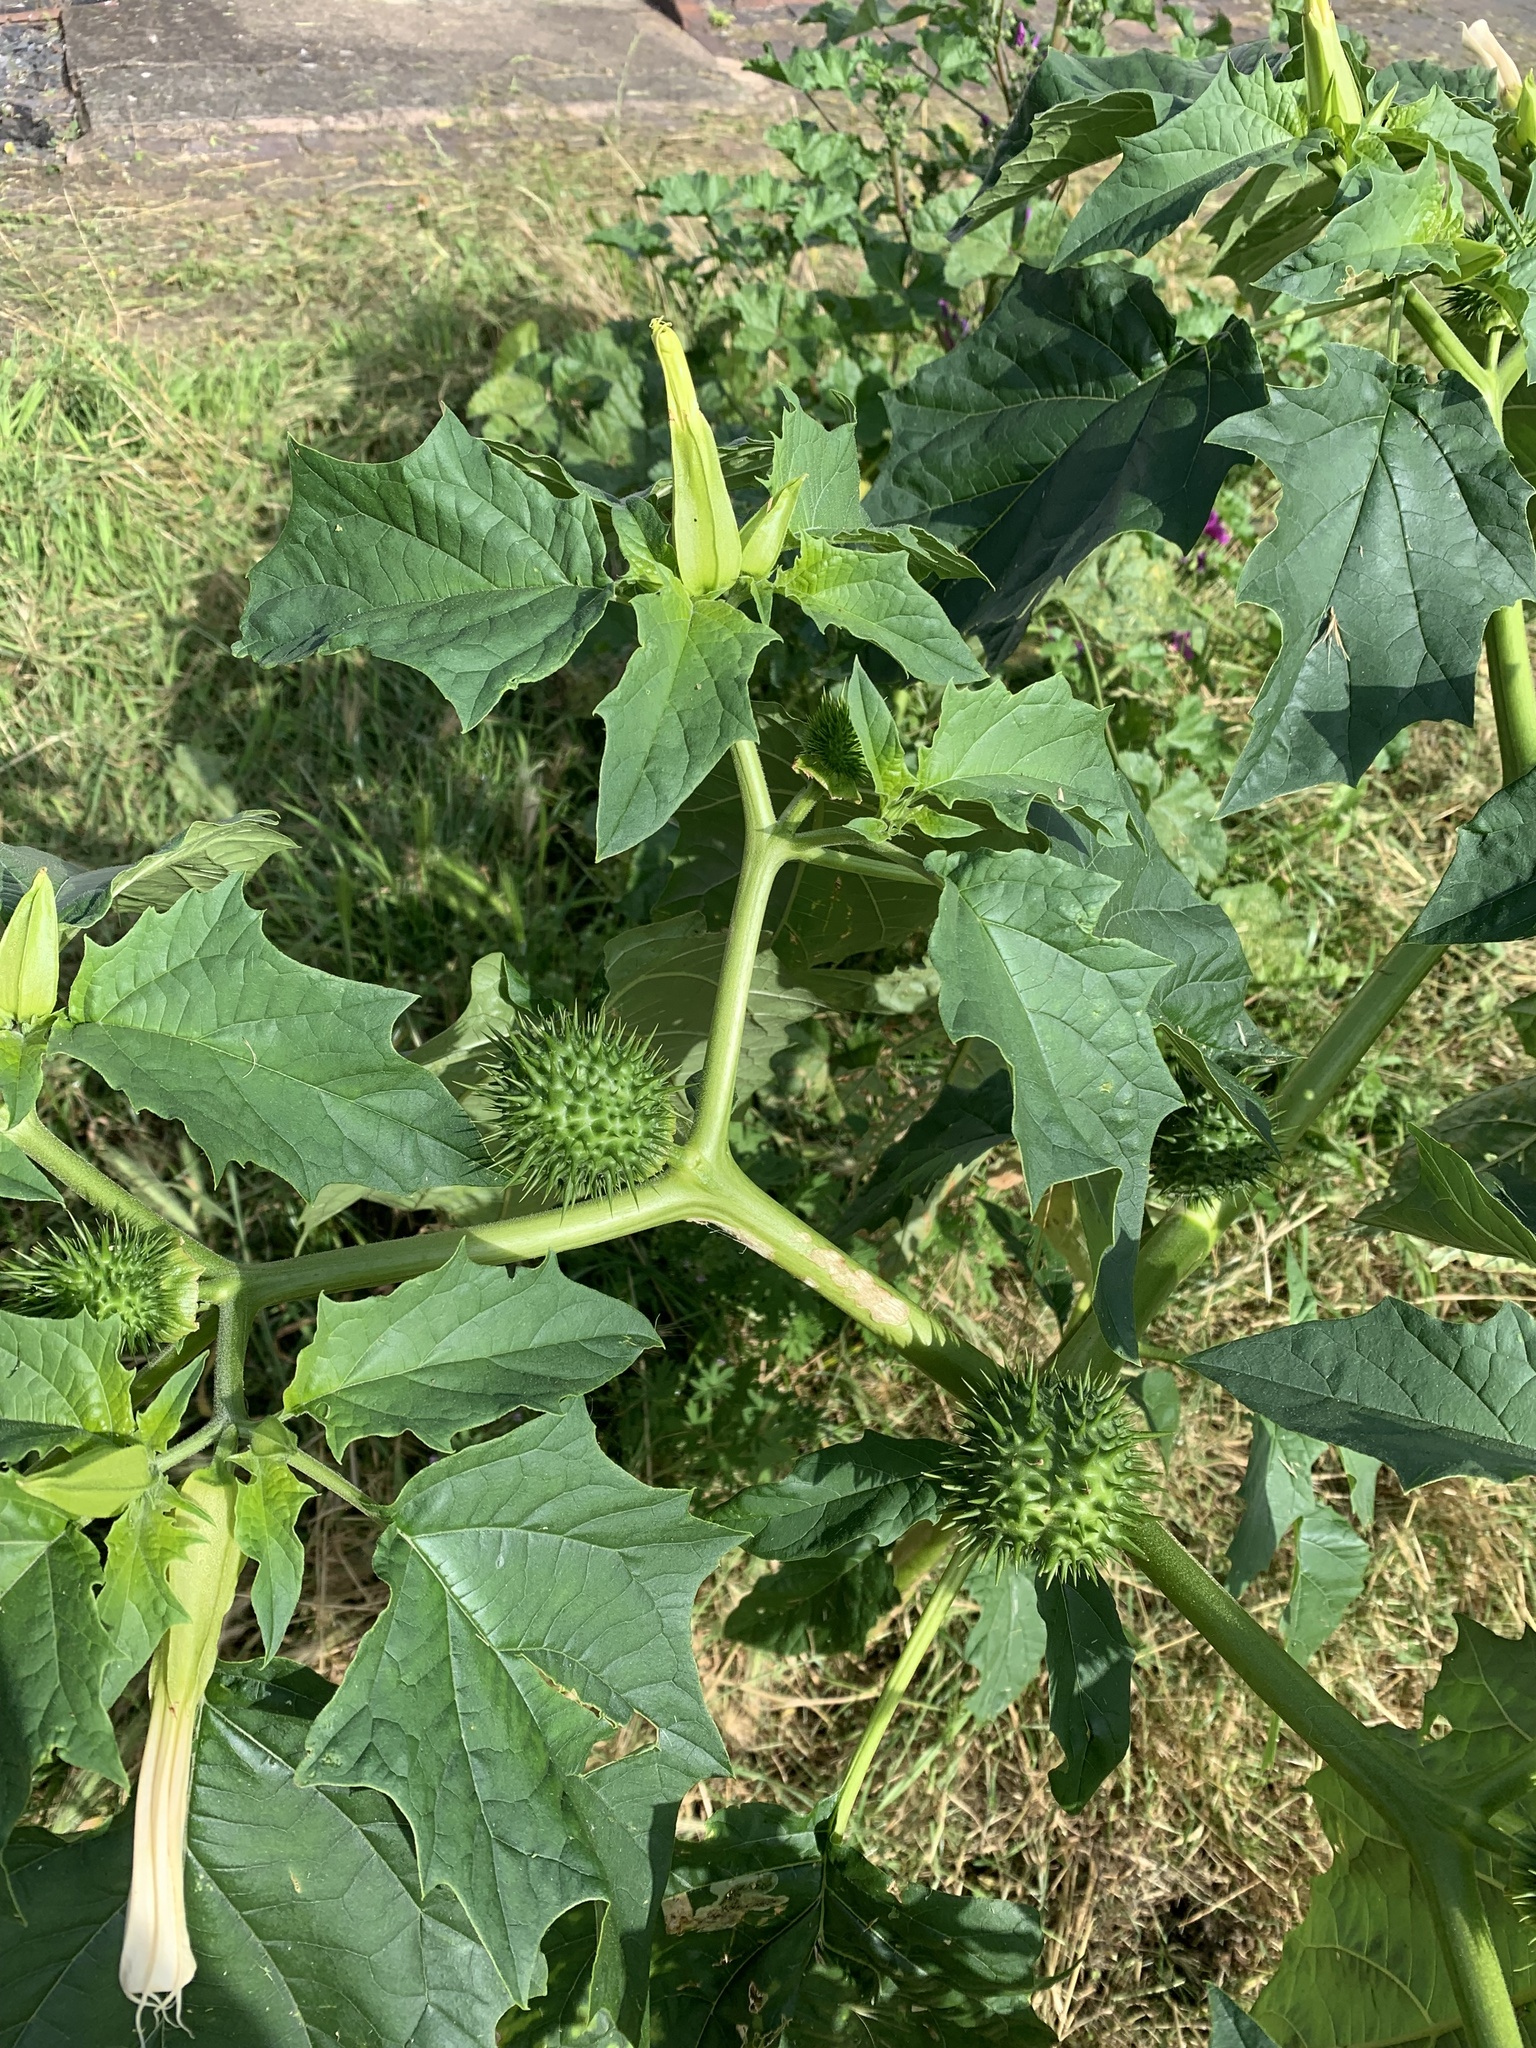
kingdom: Plantae
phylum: Tracheophyta
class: Magnoliopsida
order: Solanales
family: Solanaceae
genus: Datura
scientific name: Datura stramonium
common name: Thorn-apple
